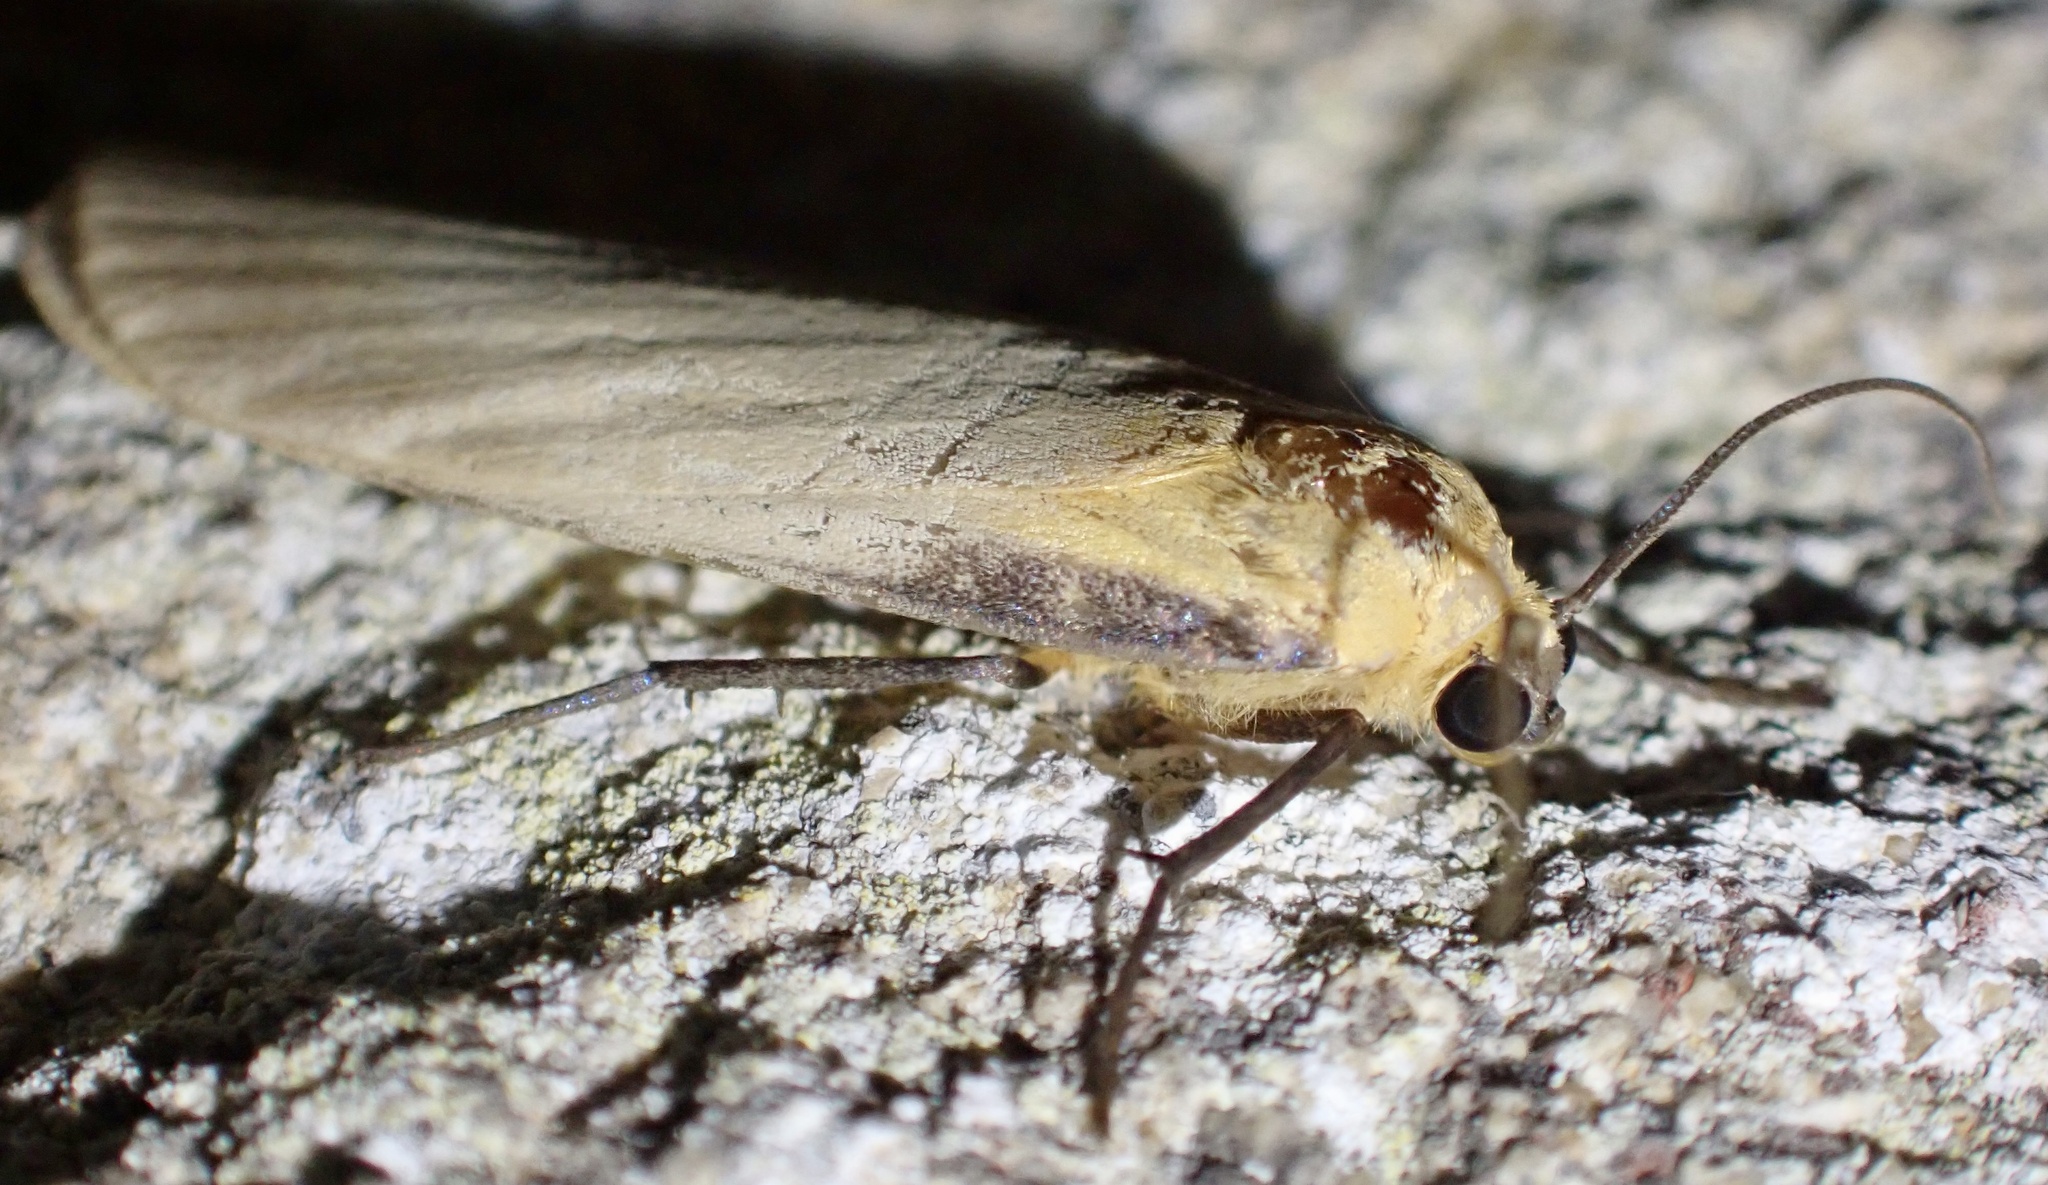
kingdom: Animalia
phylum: Arthropoda
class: Insecta
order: Lepidoptera
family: Erebidae
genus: Lithosia
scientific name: Lithosia quadra
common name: Four-spotted footman
